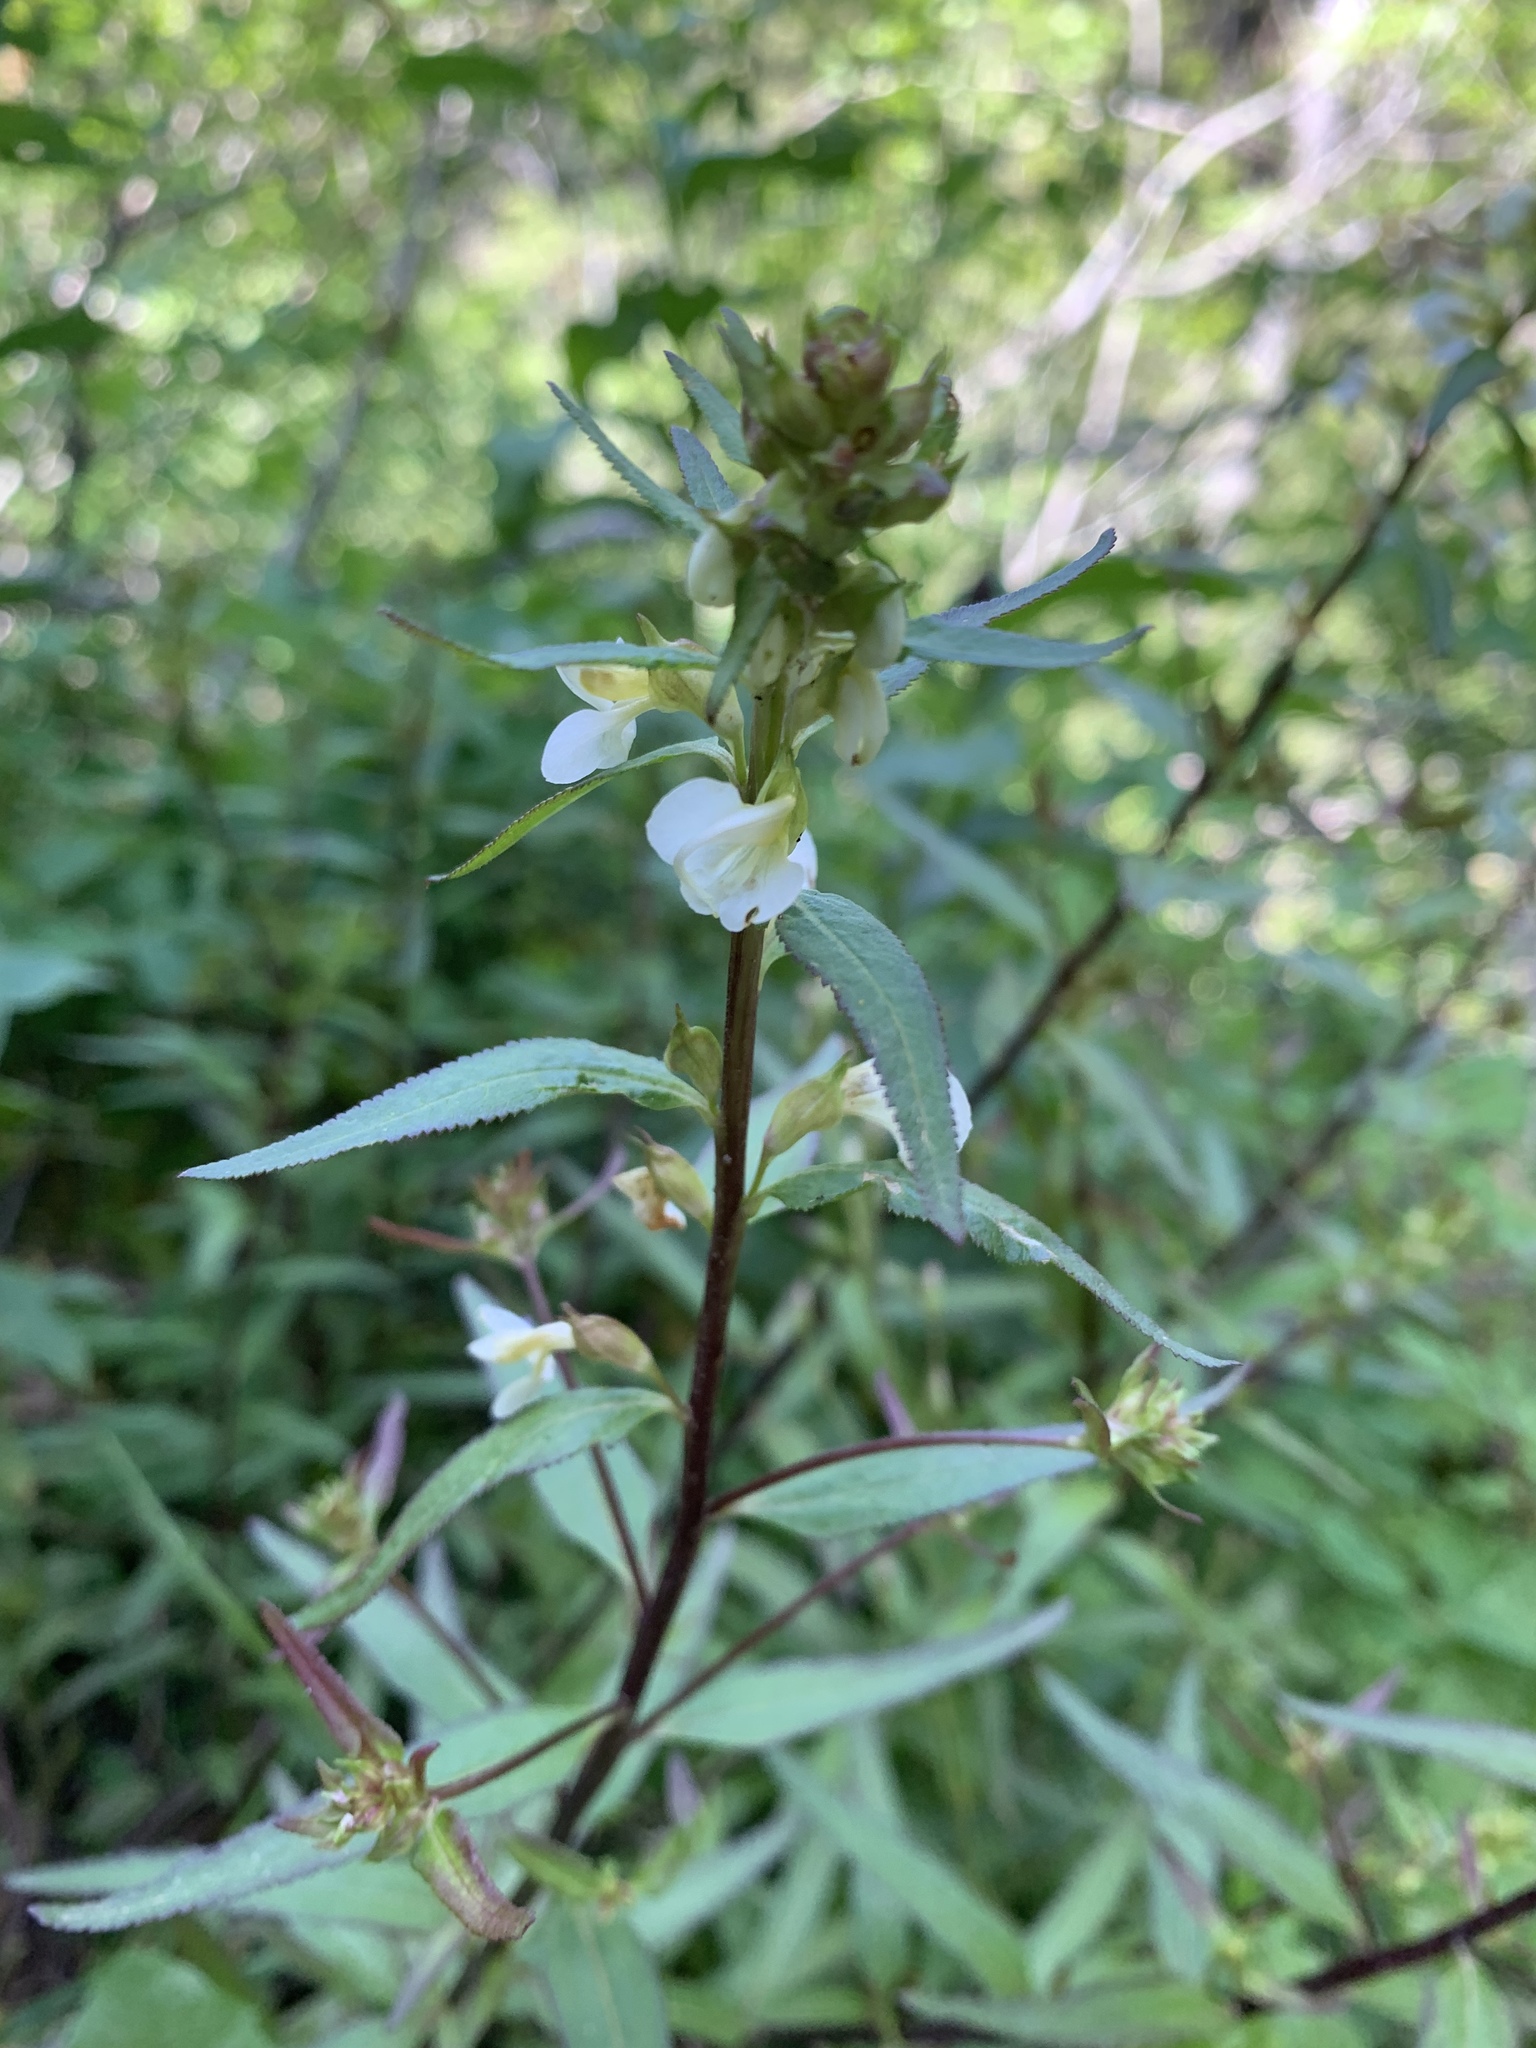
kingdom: Plantae
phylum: Tracheophyta
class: Magnoliopsida
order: Lamiales
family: Orobanchaceae
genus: Pedicularis
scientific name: Pedicularis racemosa
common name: Leafy lousewort
